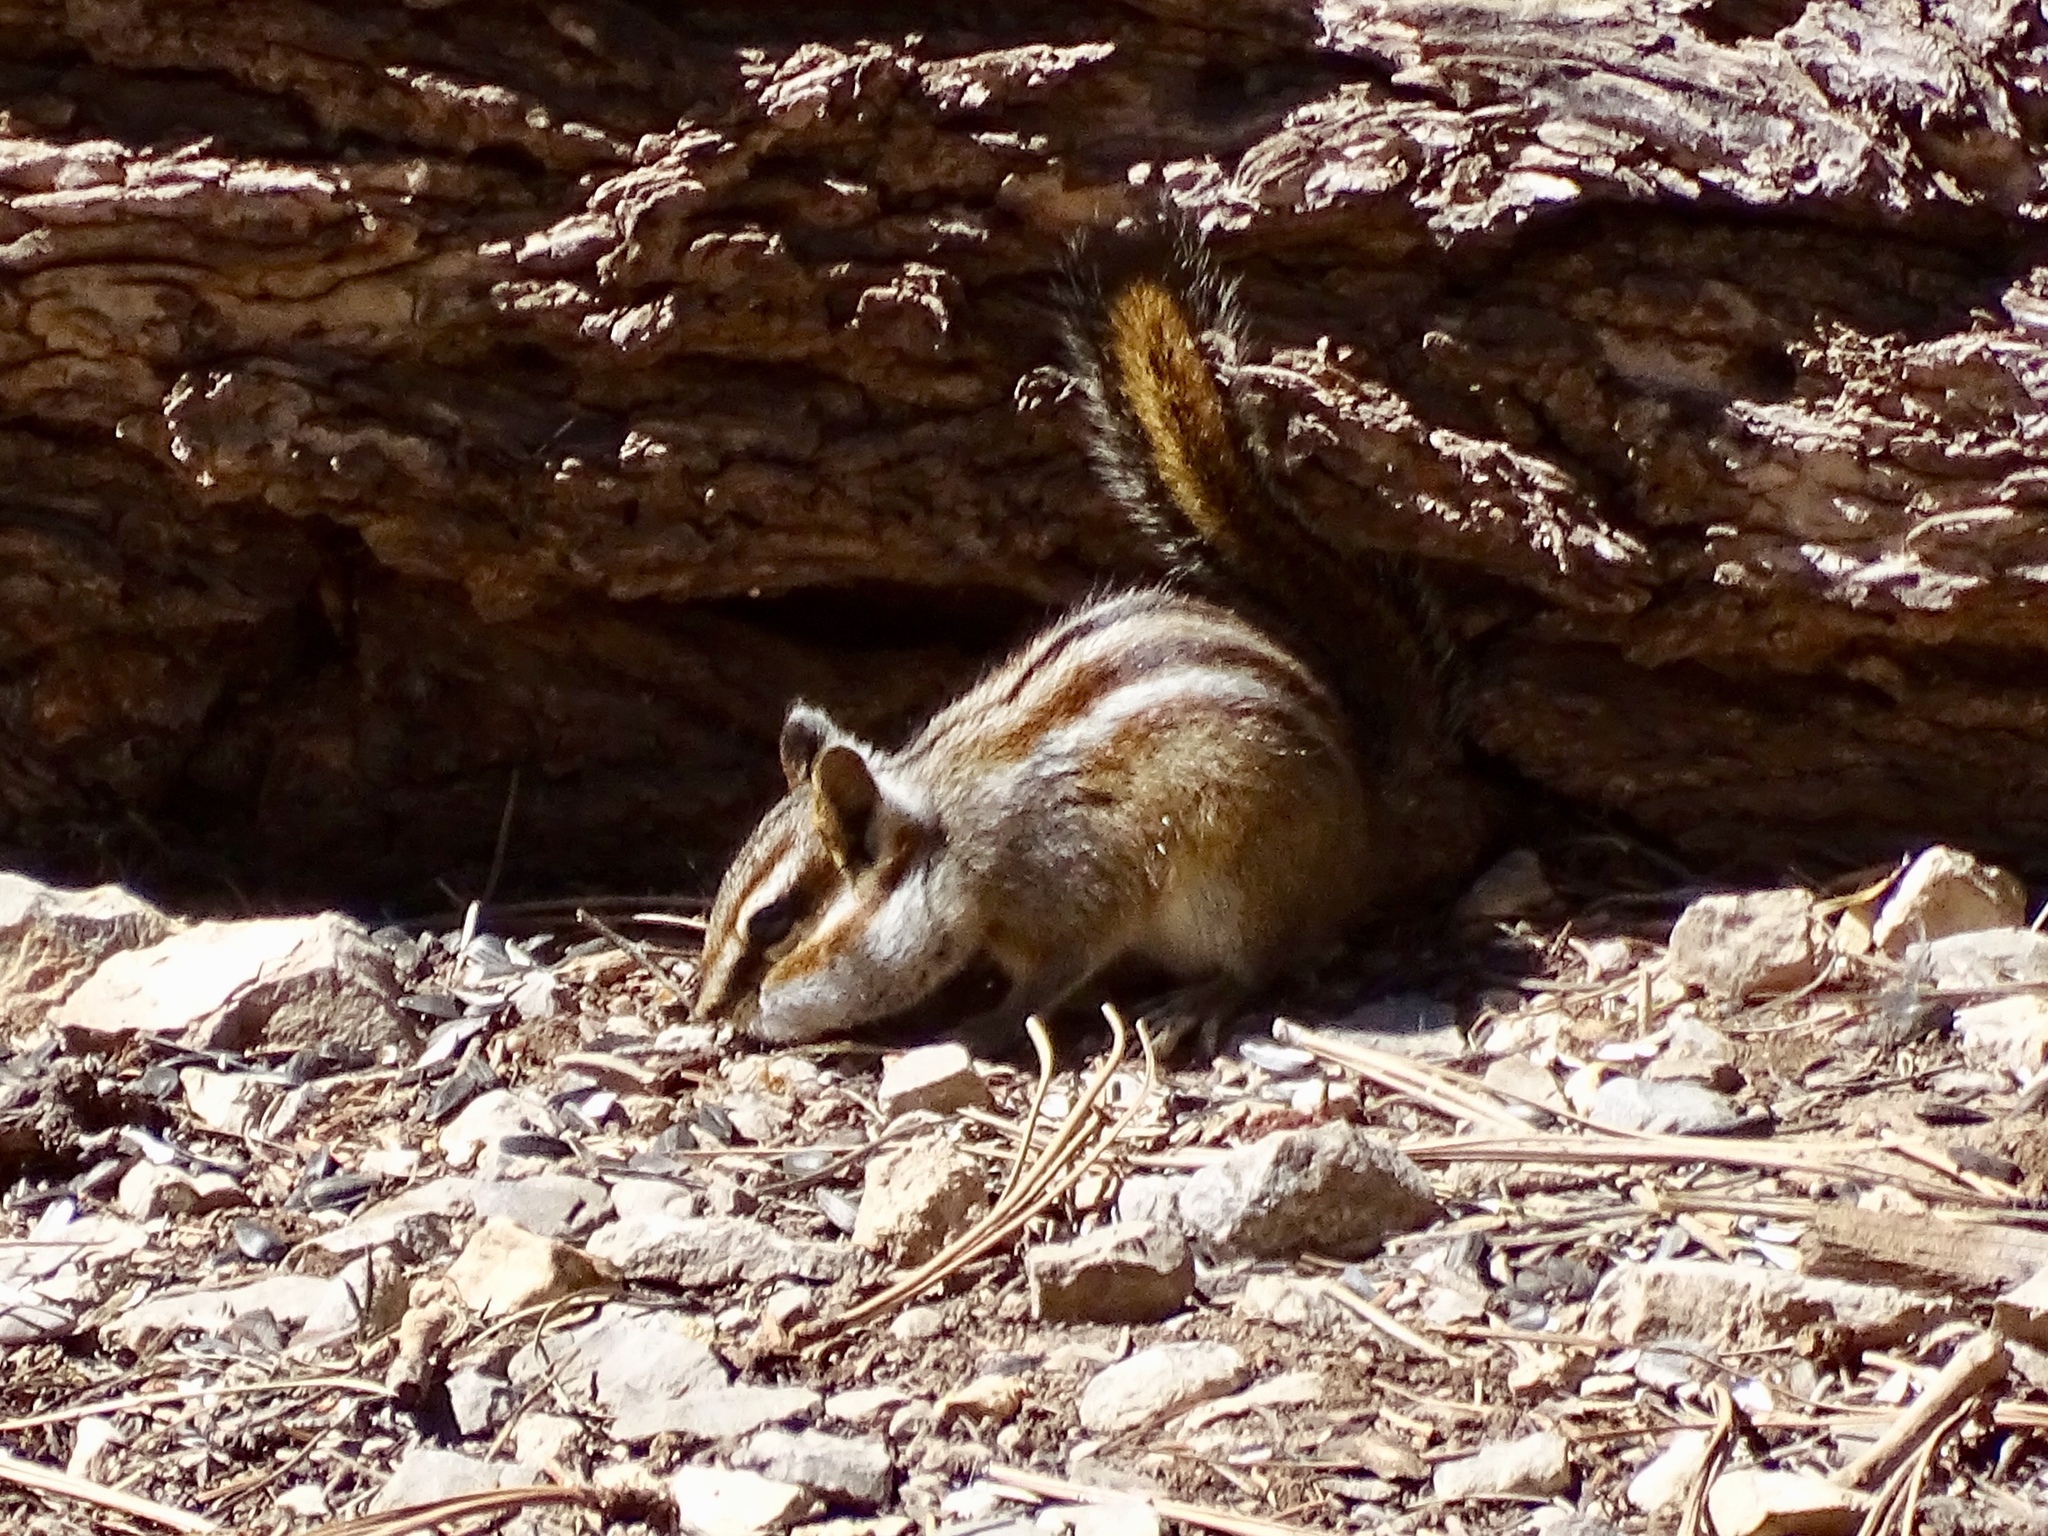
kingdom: Animalia
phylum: Chordata
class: Mammalia
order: Rodentia
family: Sciuridae
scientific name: Sciuridae
